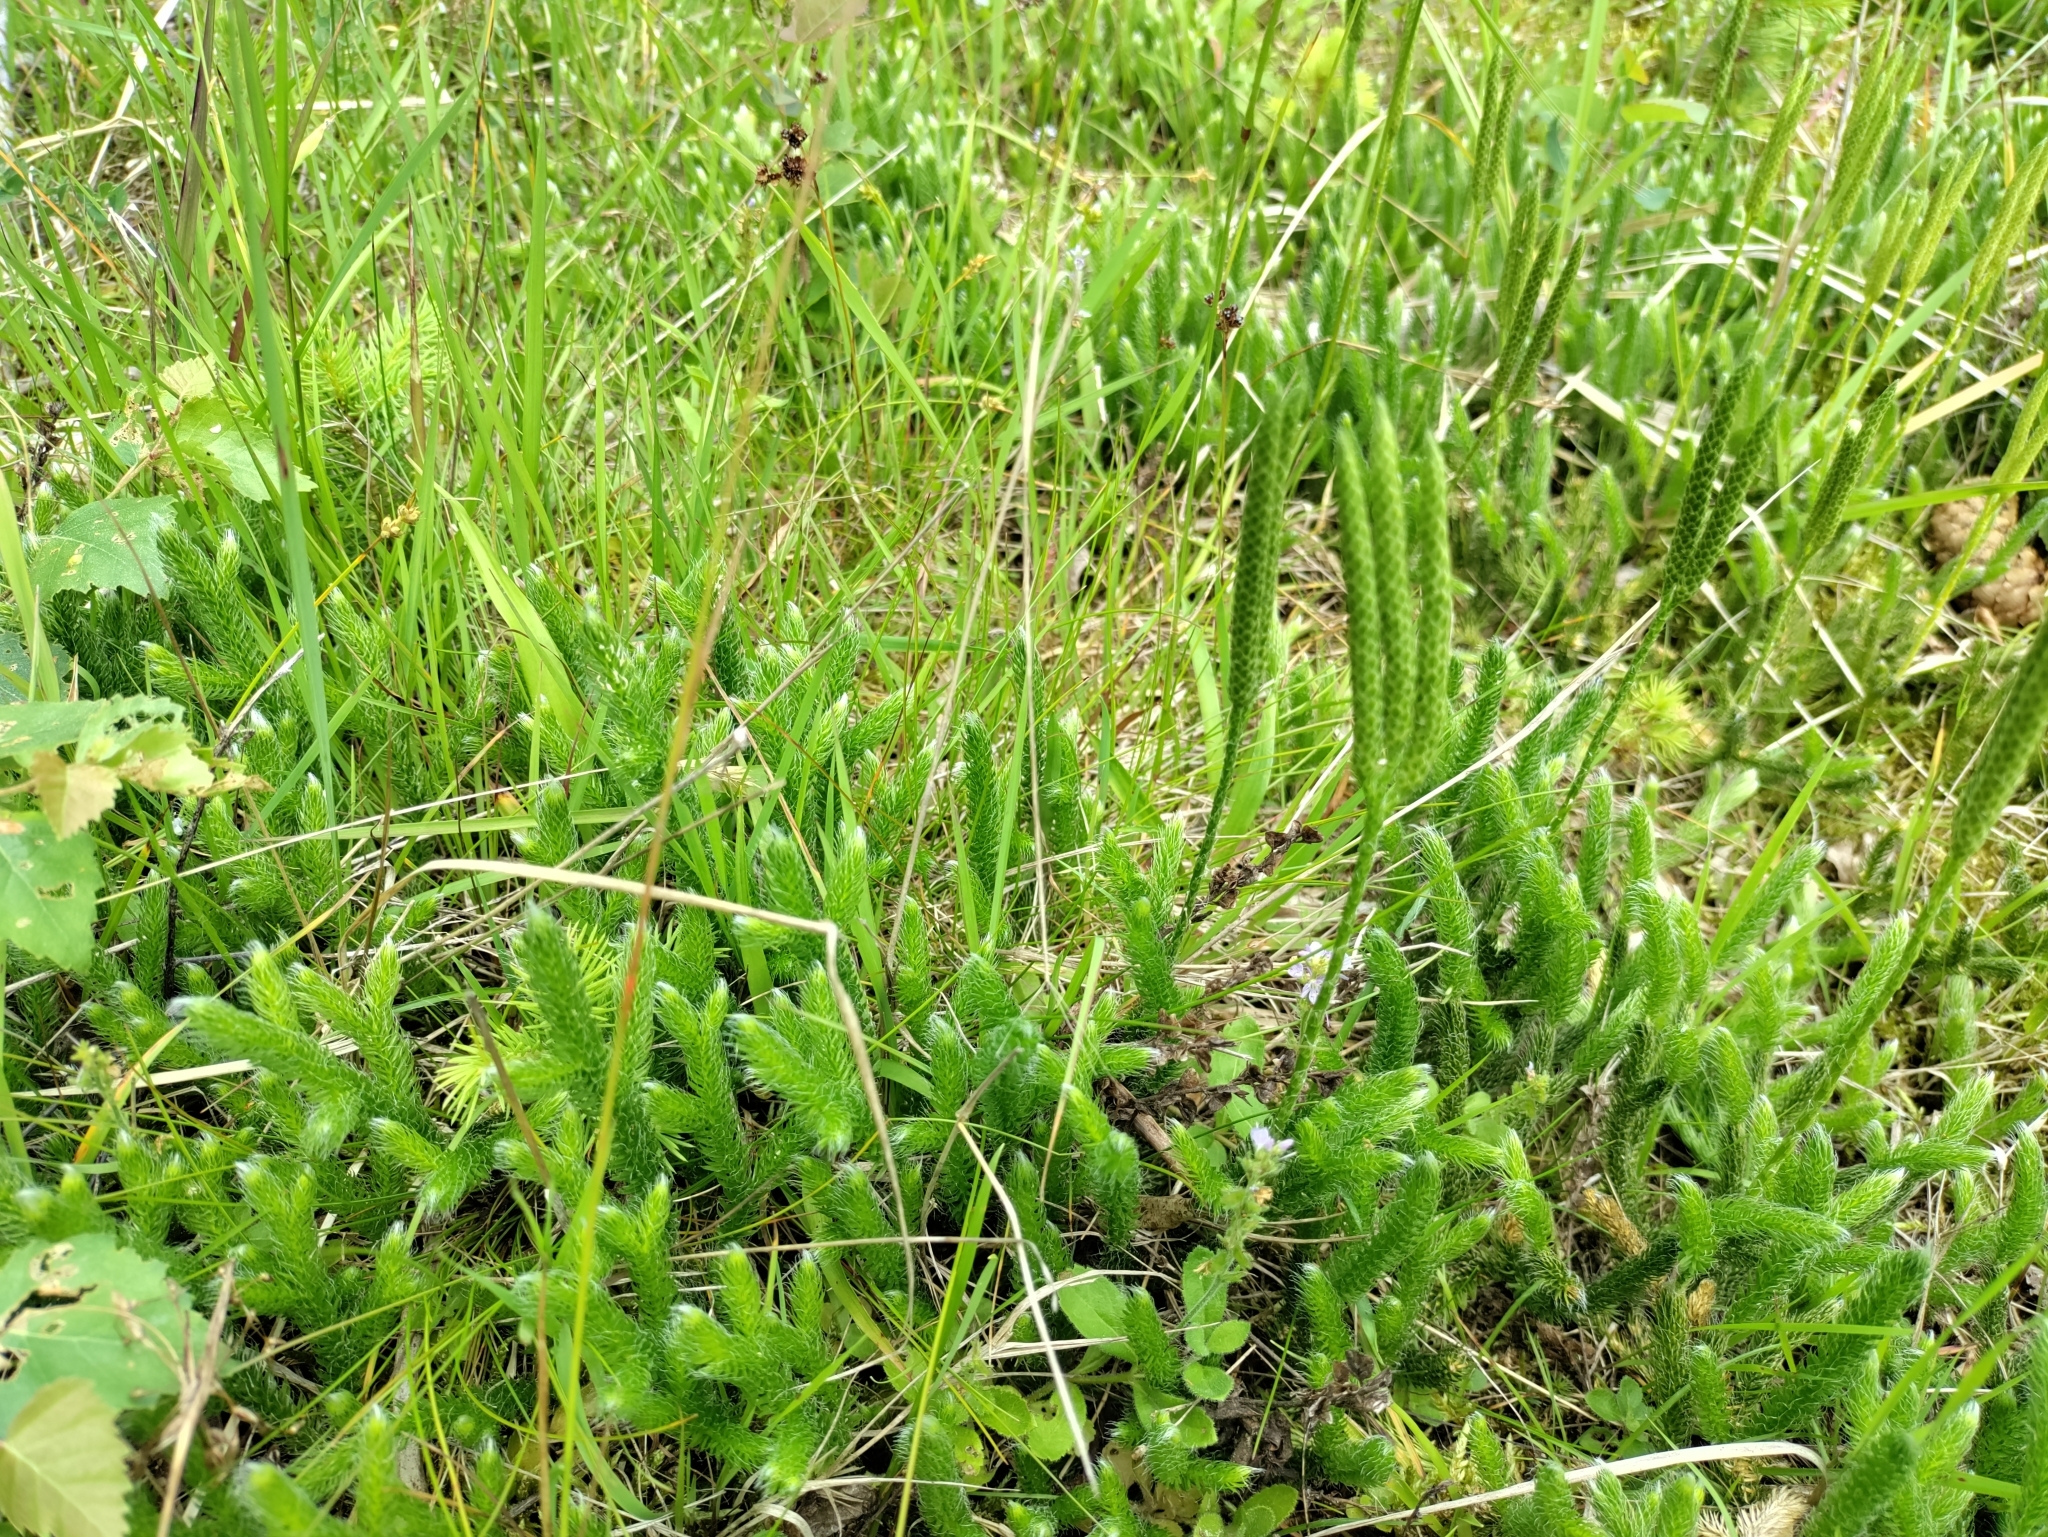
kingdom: Plantae
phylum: Tracheophyta
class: Lycopodiopsida
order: Lycopodiales
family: Lycopodiaceae
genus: Lycopodium
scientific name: Lycopodium clavatum
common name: Stag's-horn clubmoss
